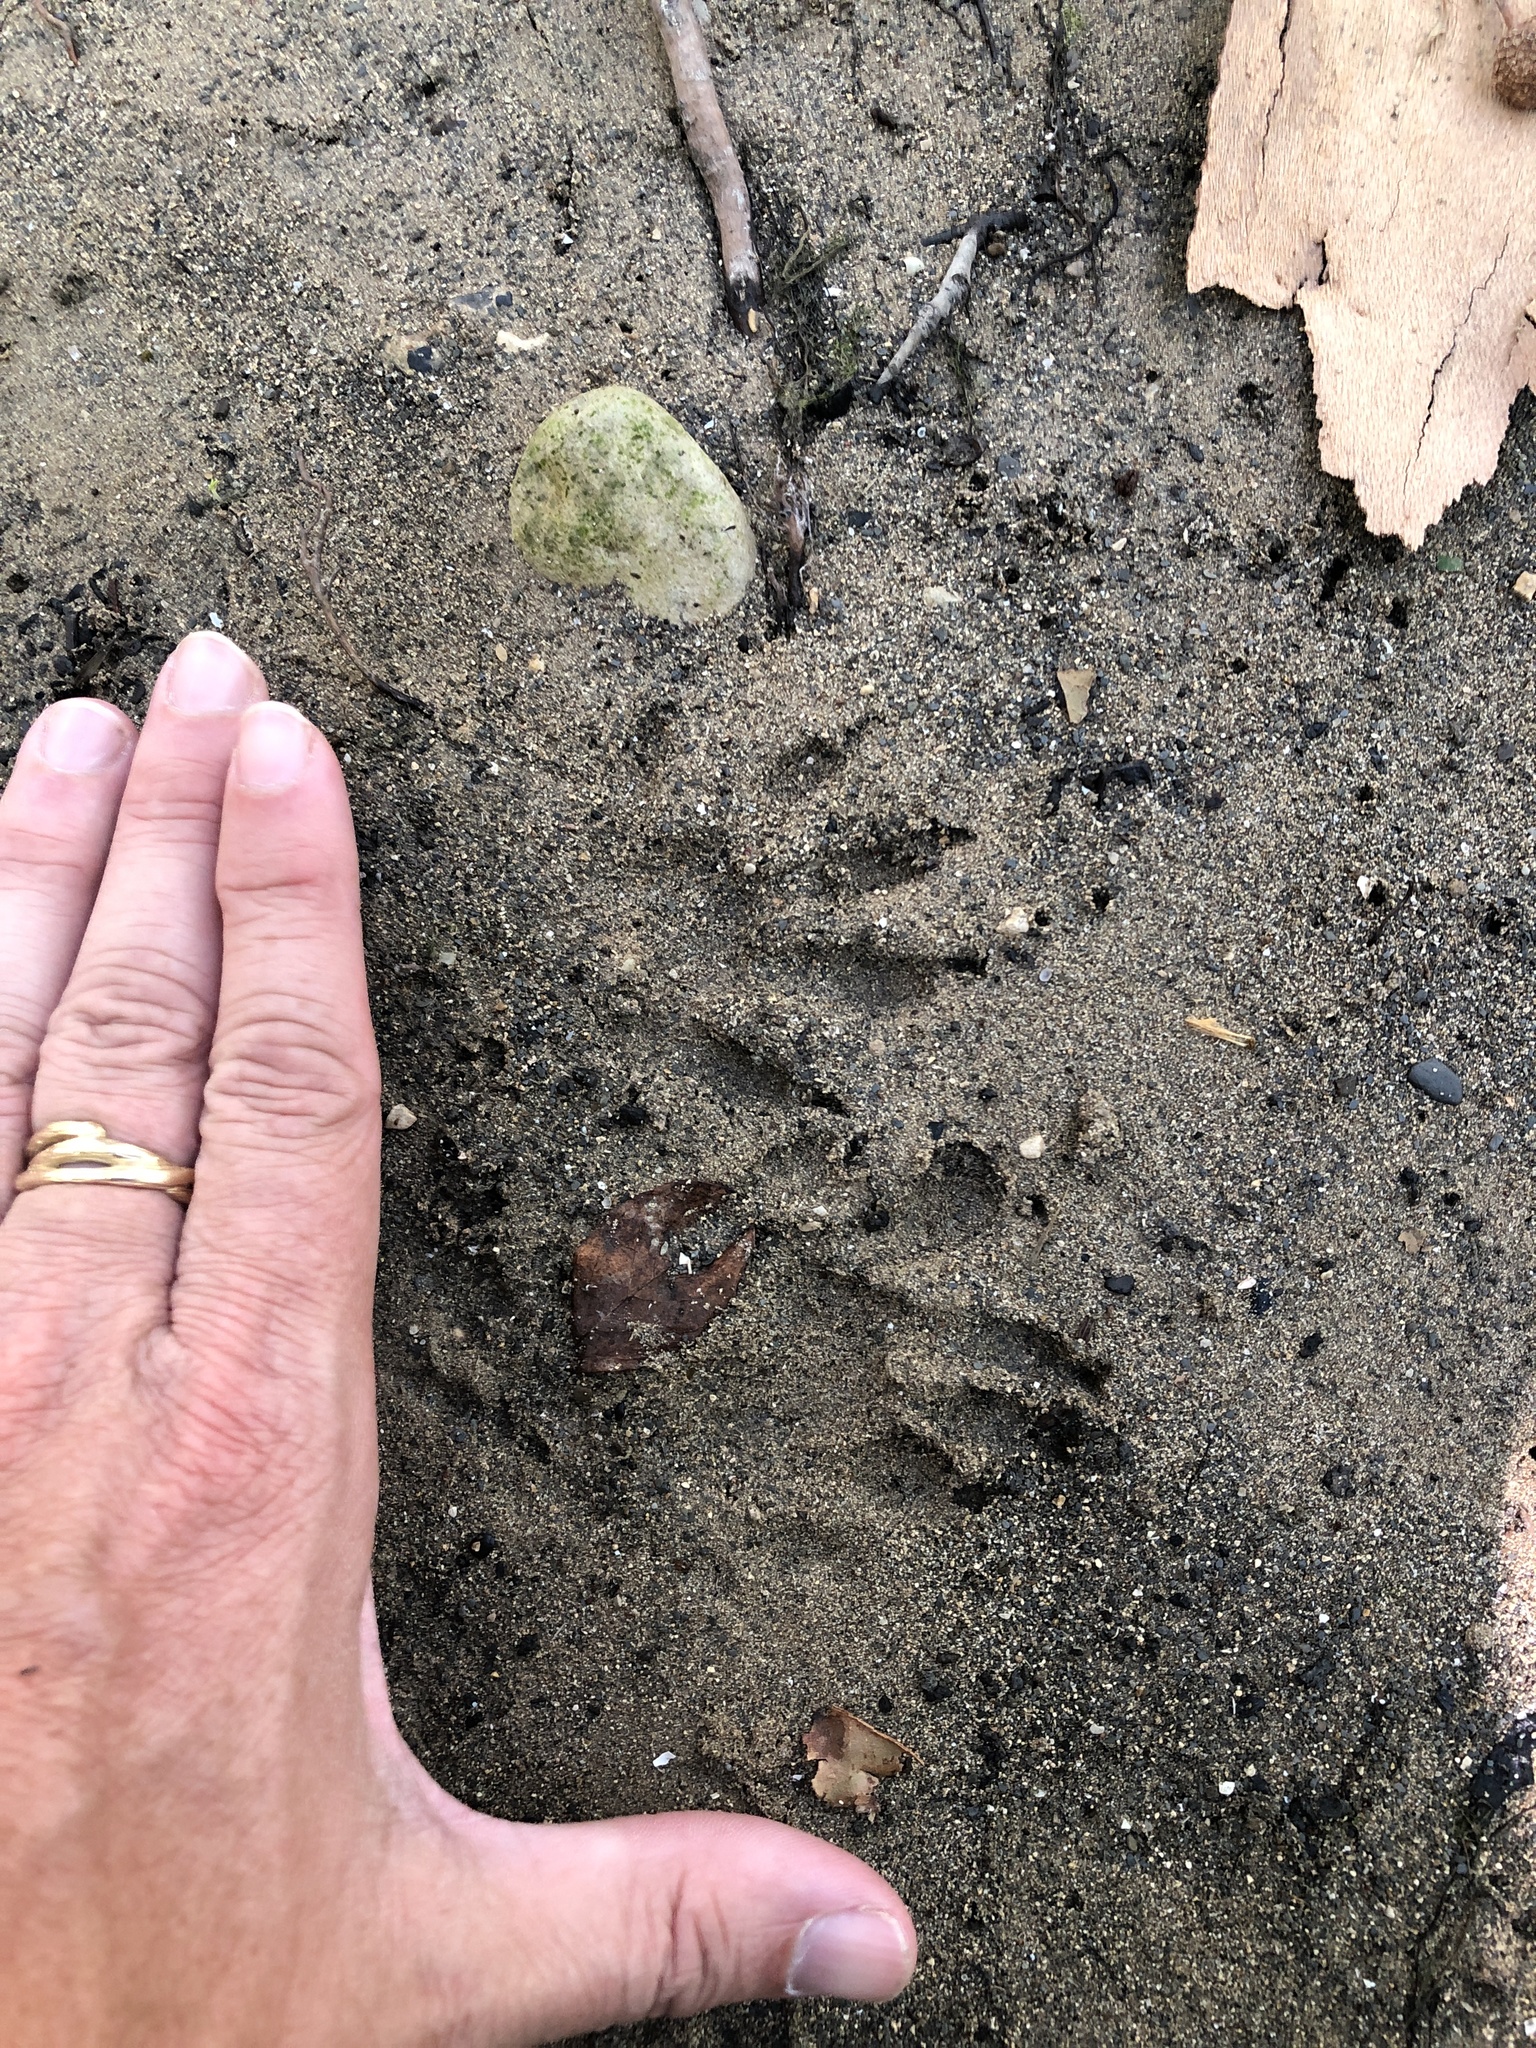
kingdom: Animalia
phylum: Chordata
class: Mammalia
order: Carnivora
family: Procyonidae
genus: Procyon
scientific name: Procyon lotor
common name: Raccoon
